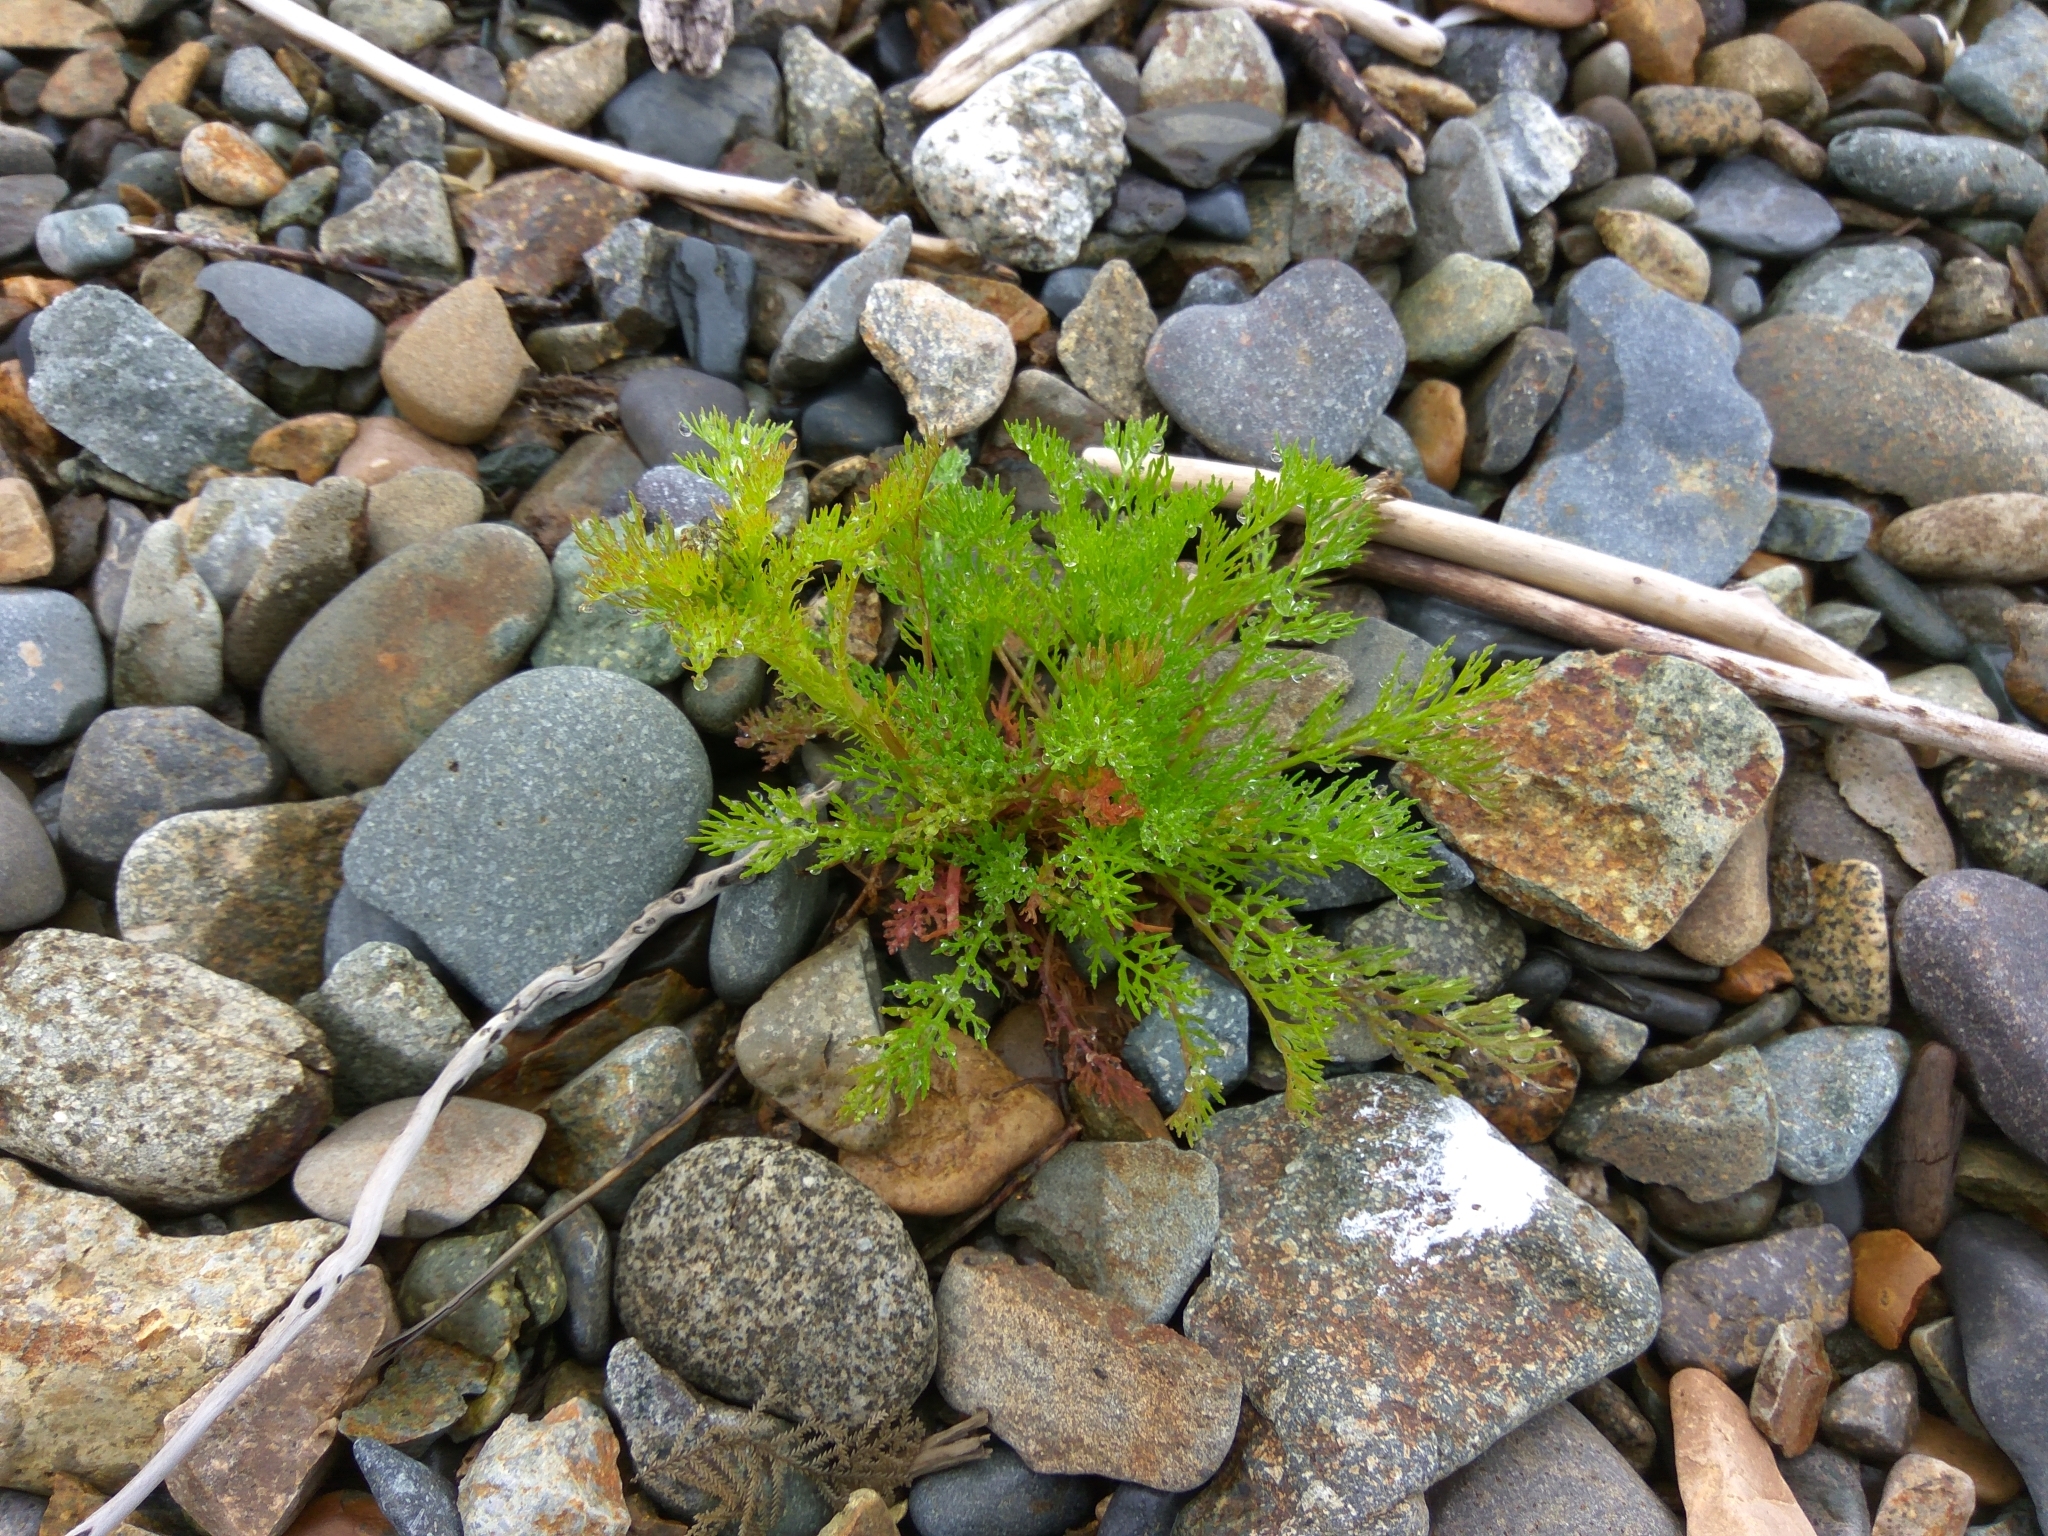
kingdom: Plantae
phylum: Tracheophyta
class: Magnoliopsida
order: Asterales
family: Asteraceae
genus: Tripleurospermum
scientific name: Tripleurospermum inodorum
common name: Scentless mayweed
